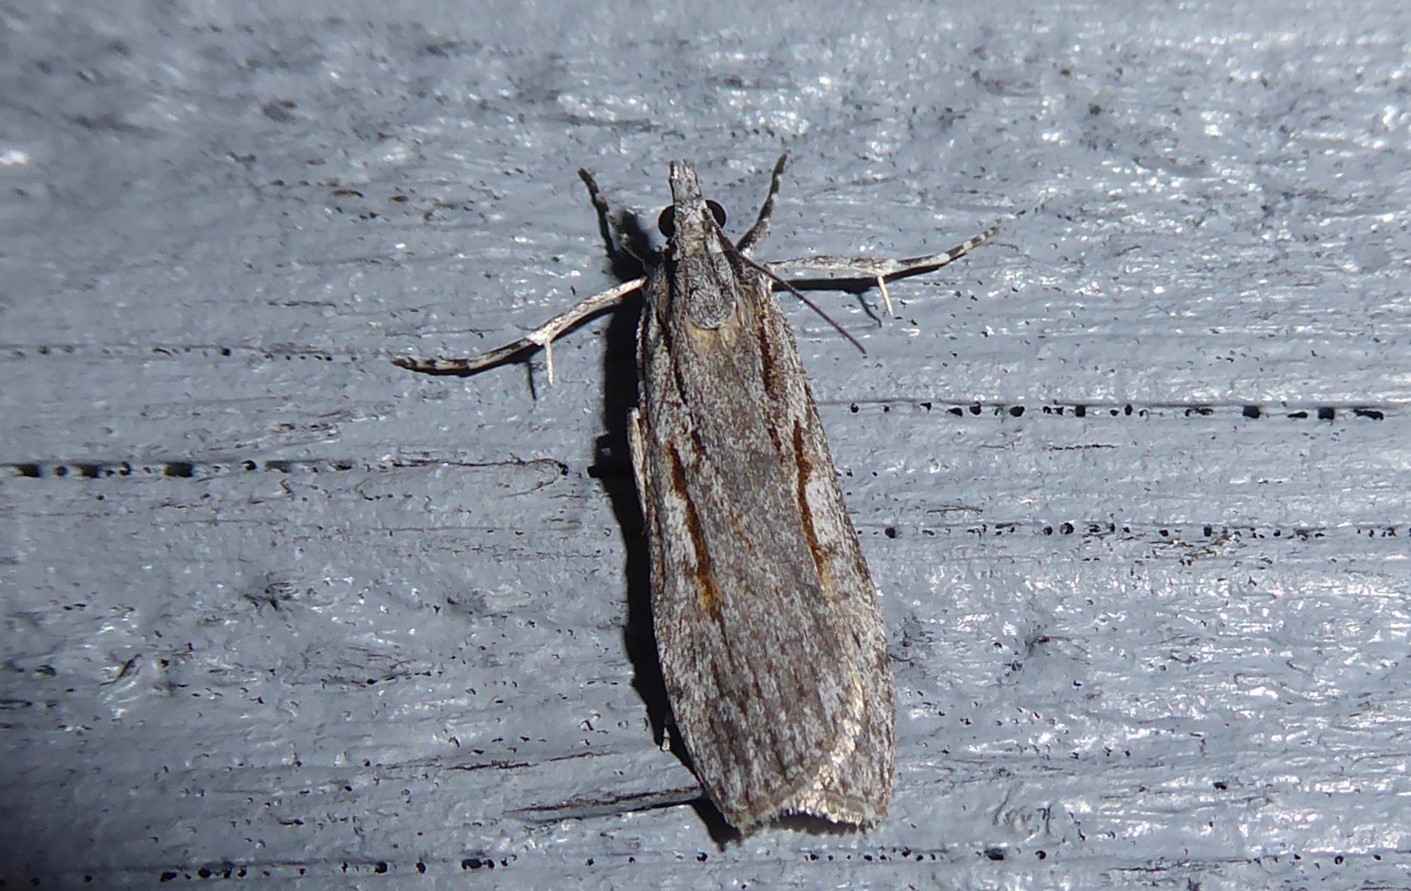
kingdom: Animalia
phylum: Arthropoda
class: Insecta
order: Lepidoptera
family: Crambidae
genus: Scoparia
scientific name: Scoparia indistinctalis
